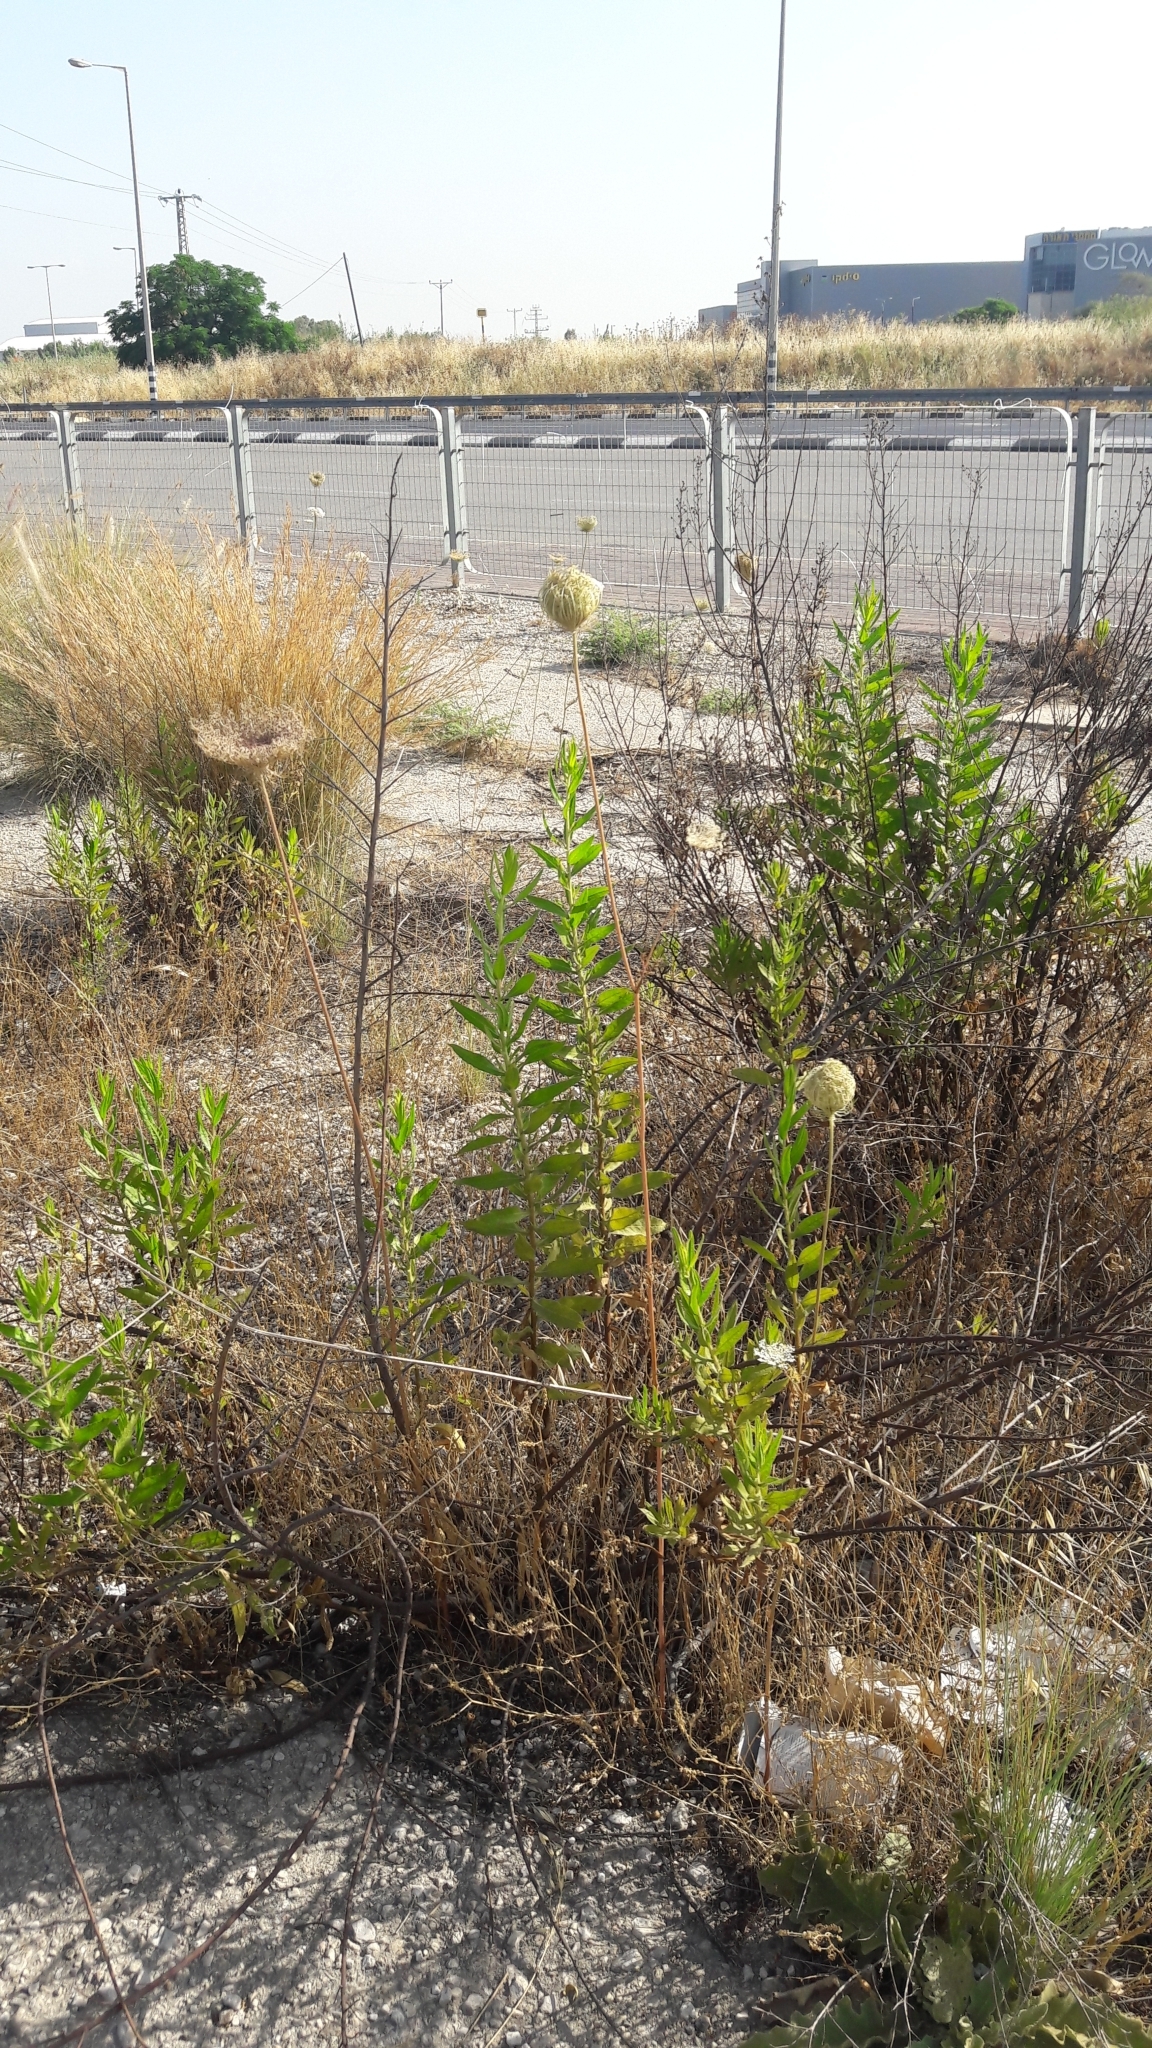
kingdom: Plantae
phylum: Tracheophyta
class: Magnoliopsida
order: Apiales
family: Apiaceae
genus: Daucus
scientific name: Daucus carota
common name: Wild carrot
